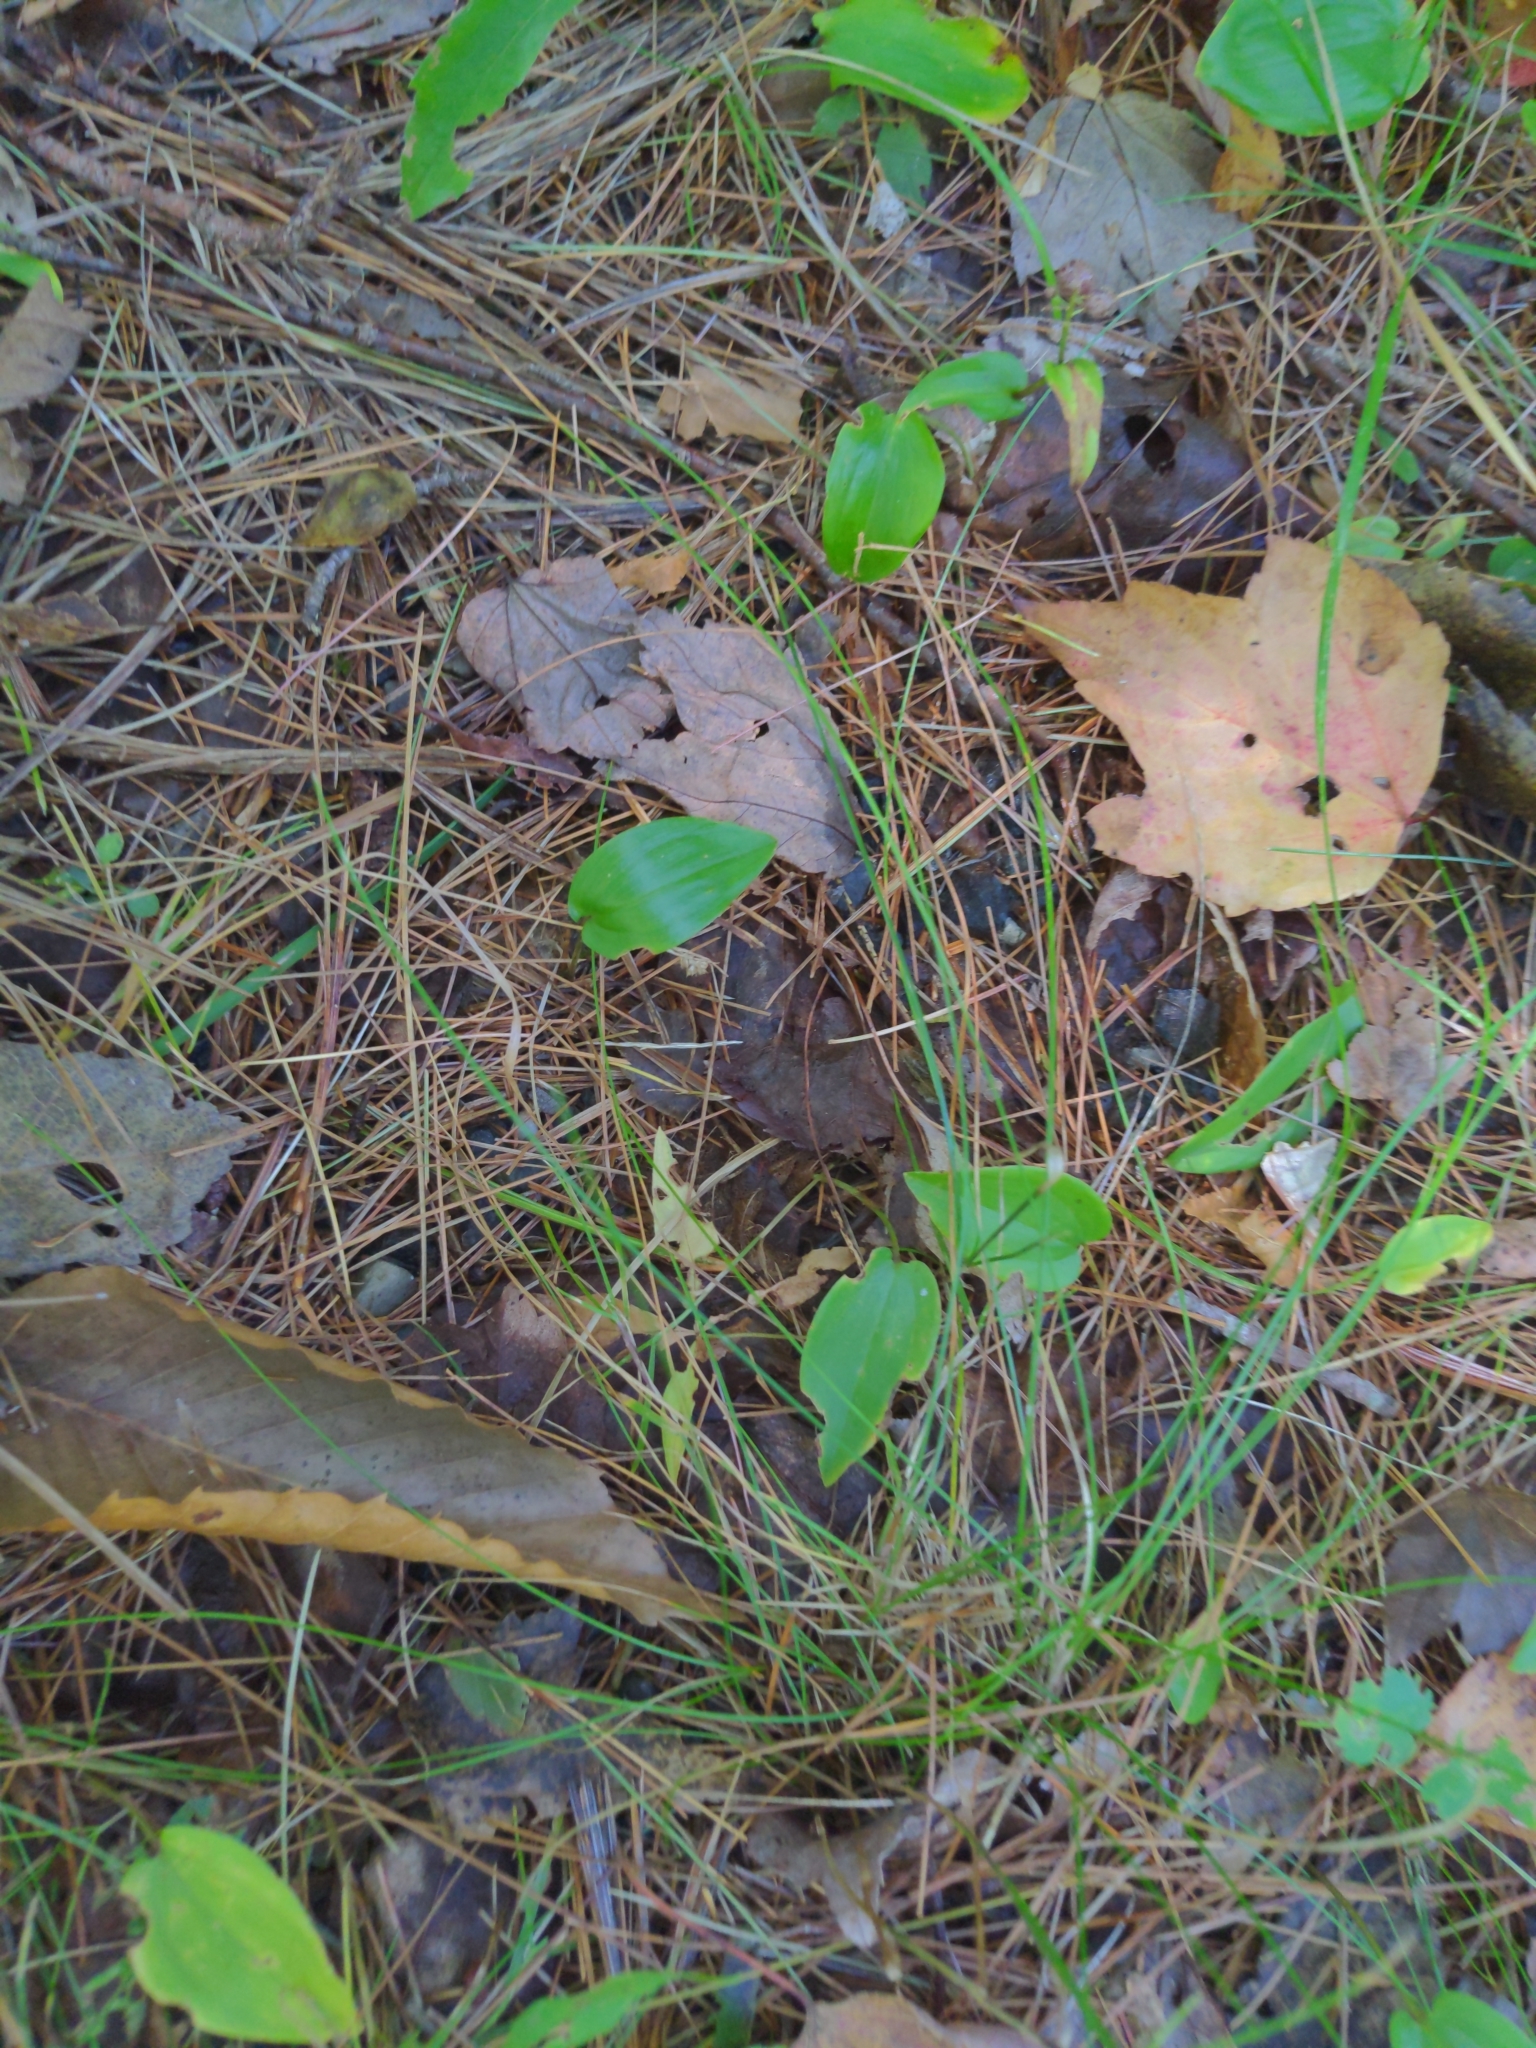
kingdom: Plantae
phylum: Tracheophyta
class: Liliopsida
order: Asparagales
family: Asparagaceae
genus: Maianthemum
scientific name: Maianthemum canadense
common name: False lily-of-the-valley
